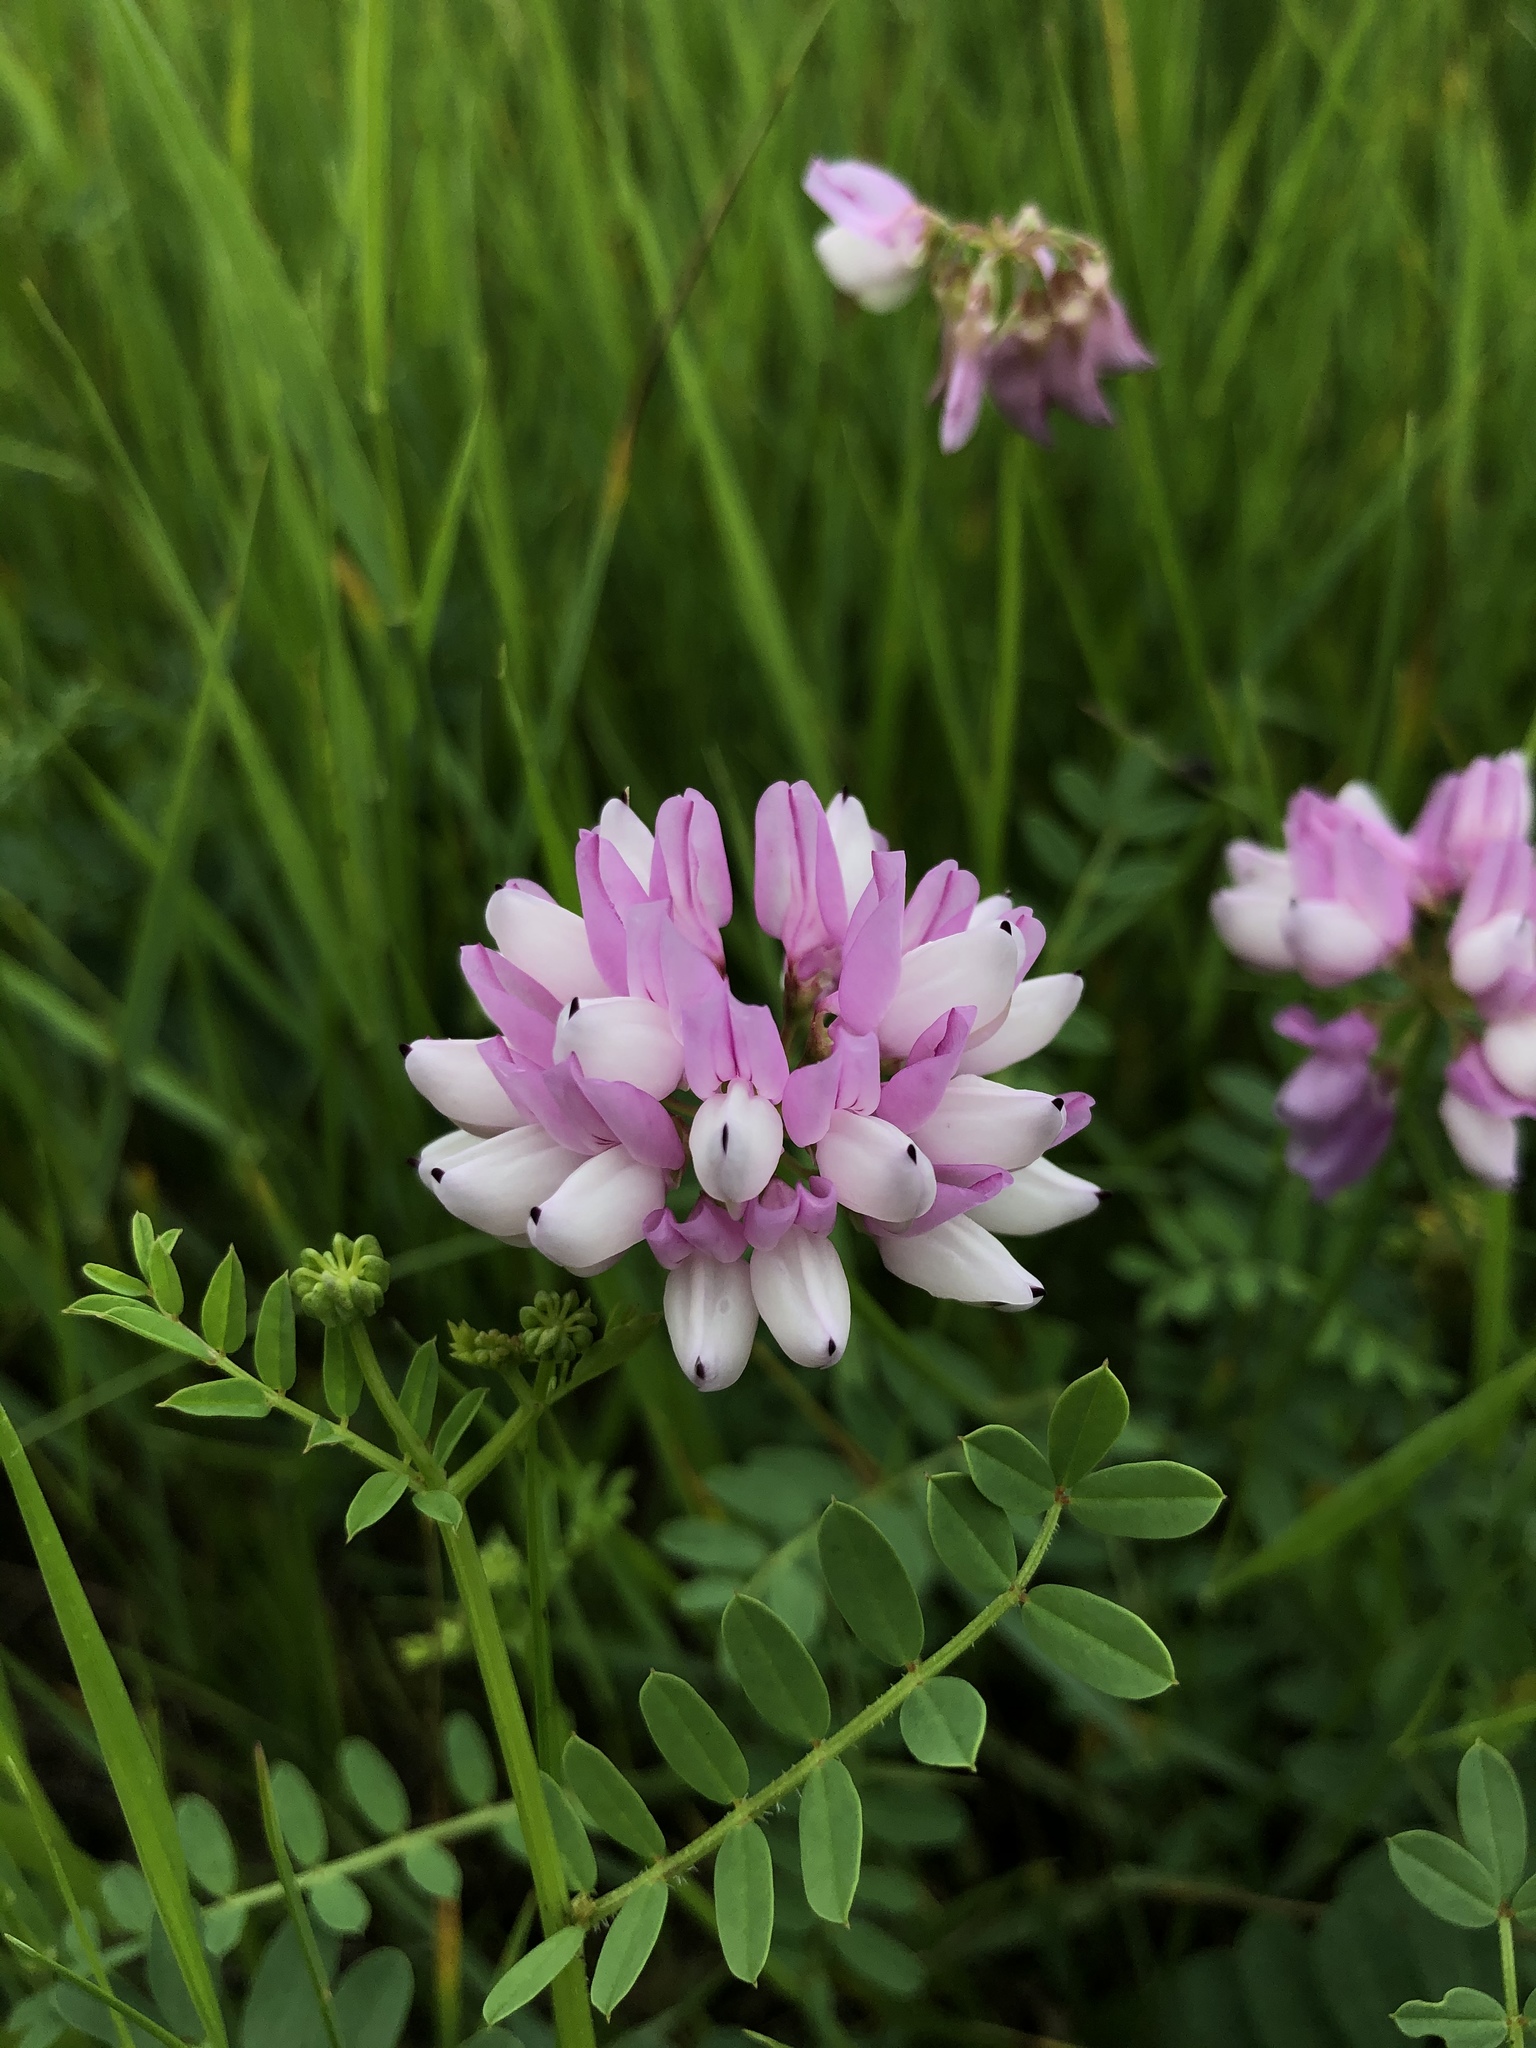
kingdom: Plantae
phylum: Tracheophyta
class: Magnoliopsida
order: Fabales
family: Fabaceae
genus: Coronilla
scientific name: Coronilla varia
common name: Crownvetch
